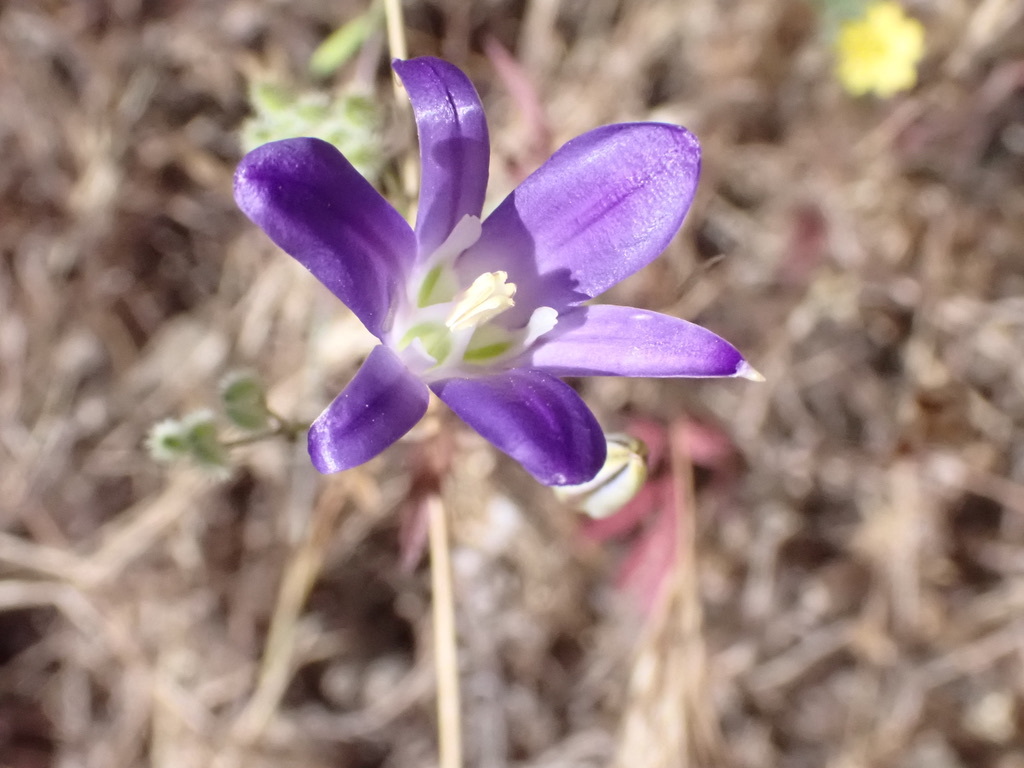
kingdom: Plantae
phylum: Tracheophyta
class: Liliopsida
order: Asparagales
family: Asparagaceae
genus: Brodiaea
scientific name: Brodiaea elegans
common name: Elegant cluster-lily
